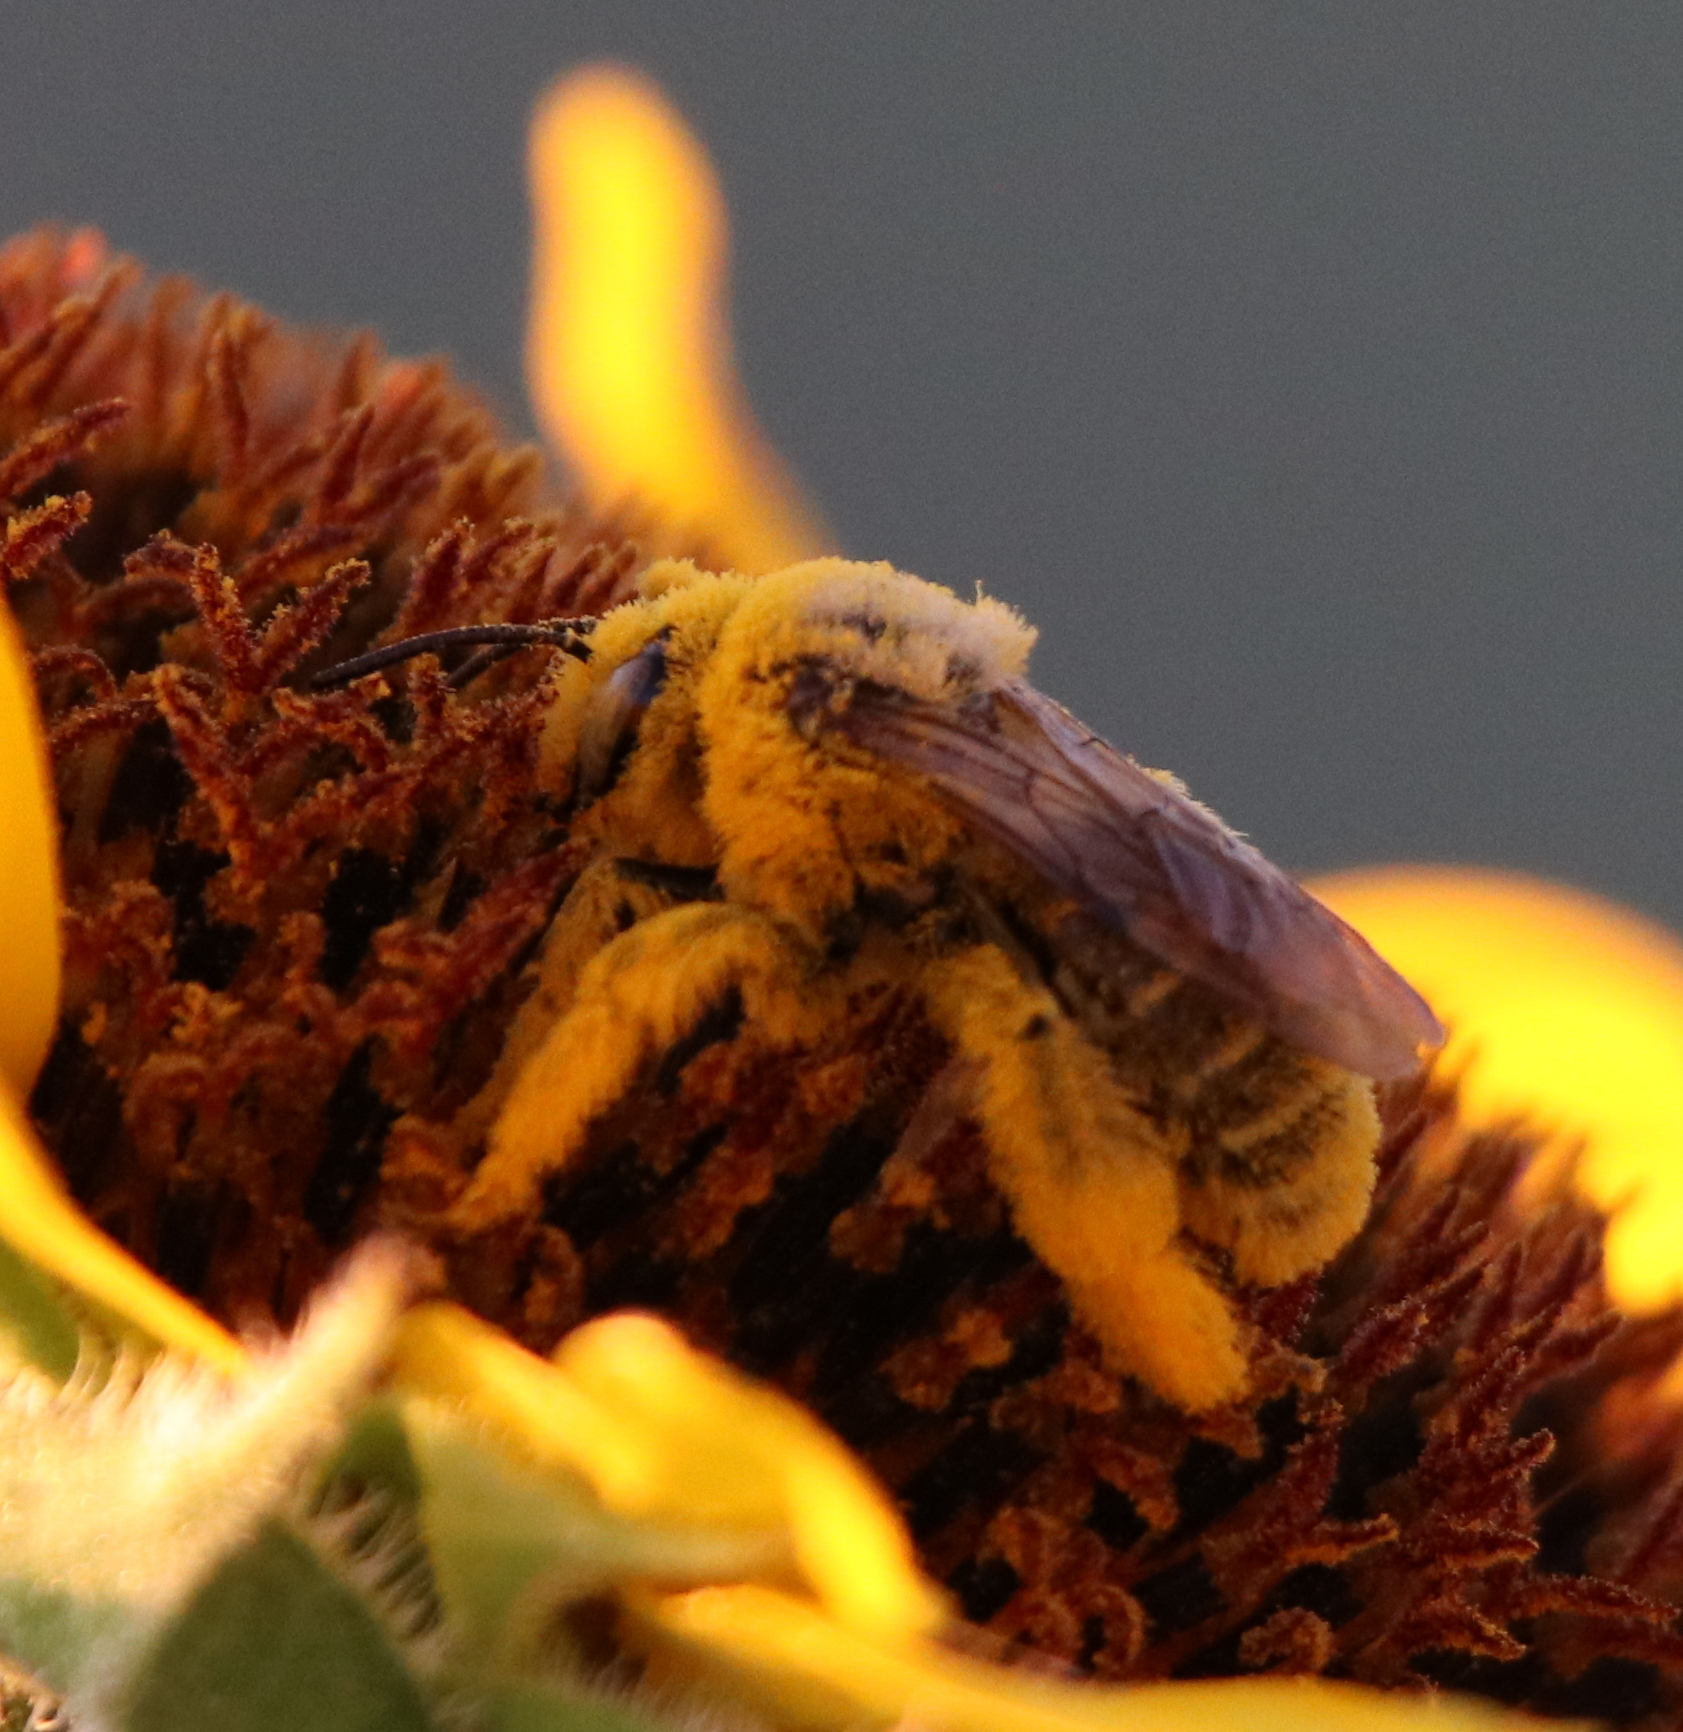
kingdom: Animalia
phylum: Arthropoda
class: Insecta
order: Hymenoptera
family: Apidae
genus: Diadasia
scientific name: Diadasia
